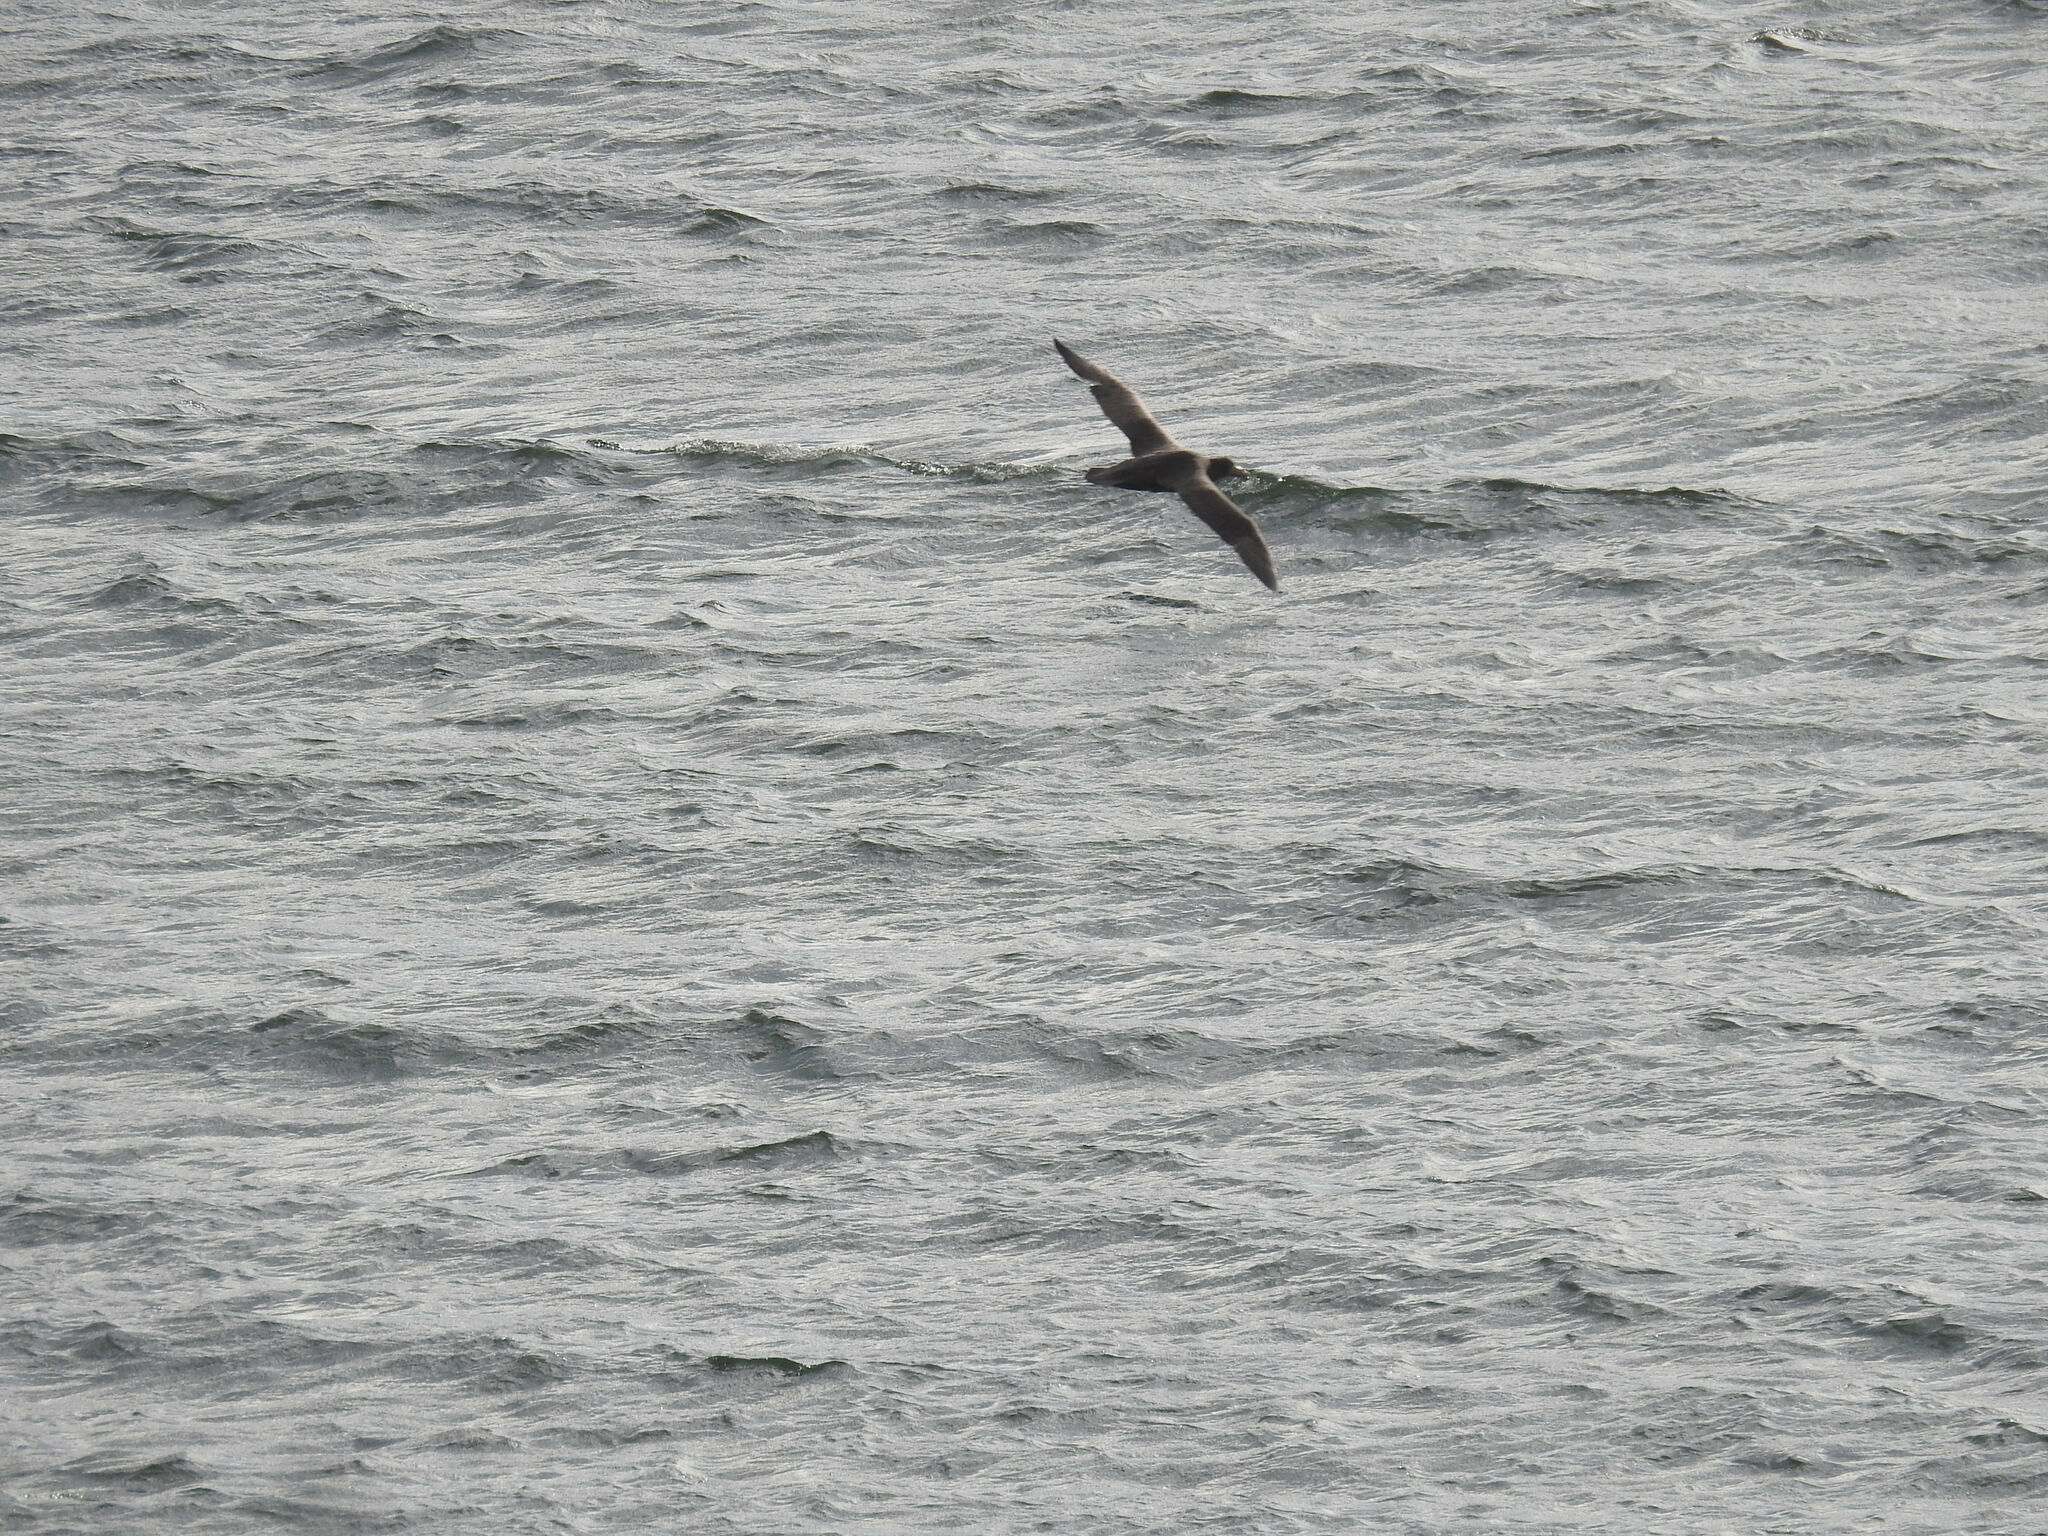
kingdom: Animalia
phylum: Chordata
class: Aves
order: Procellariiformes
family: Procellariidae
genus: Macronectes
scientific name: Macronectes giganteus
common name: Southern giant petrel
